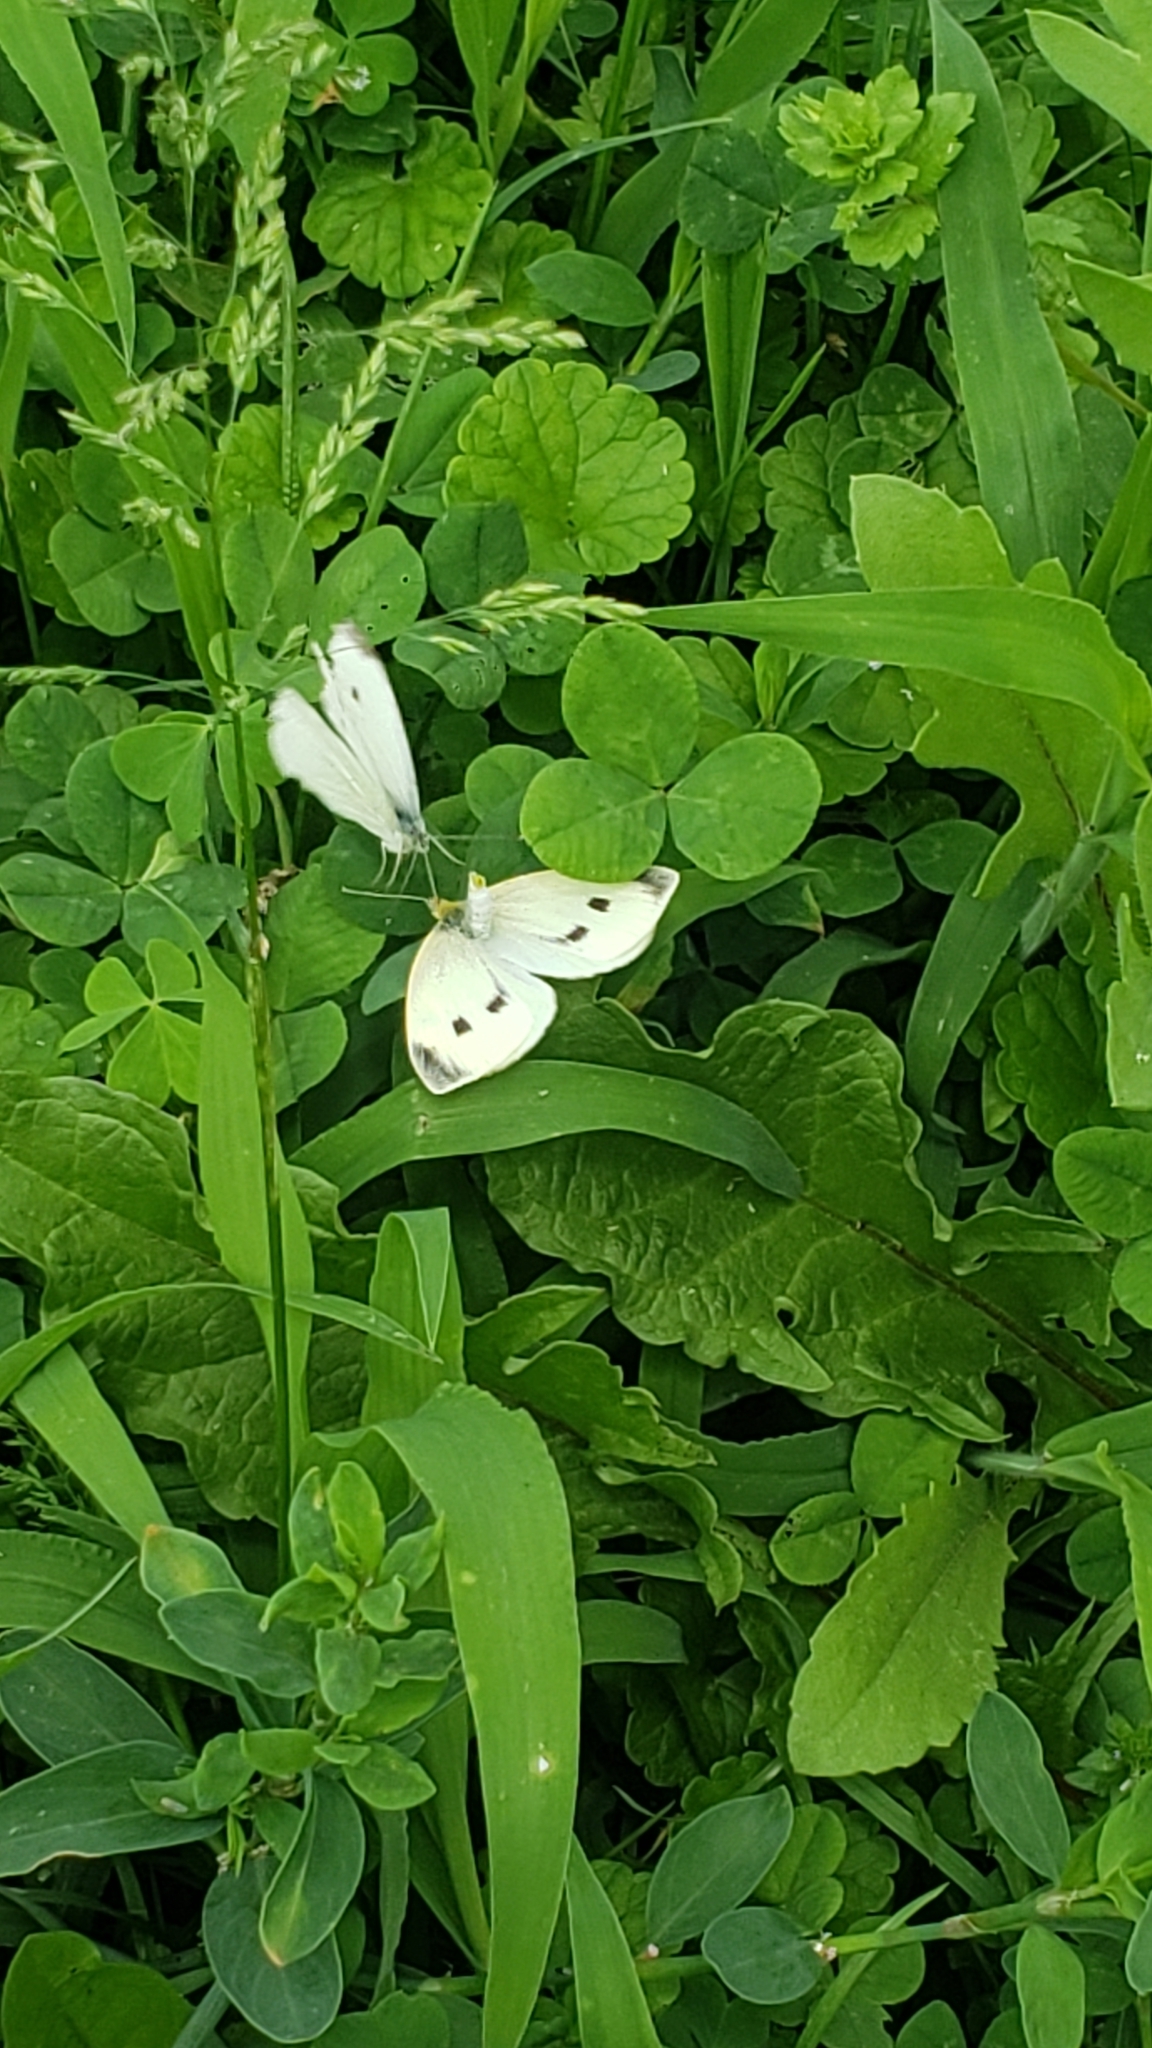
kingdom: Animalia
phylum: Arthropoda
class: Insecta
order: Lepidoptera
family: Pieridae
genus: Pieris
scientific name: Pieris rapae
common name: Small white
